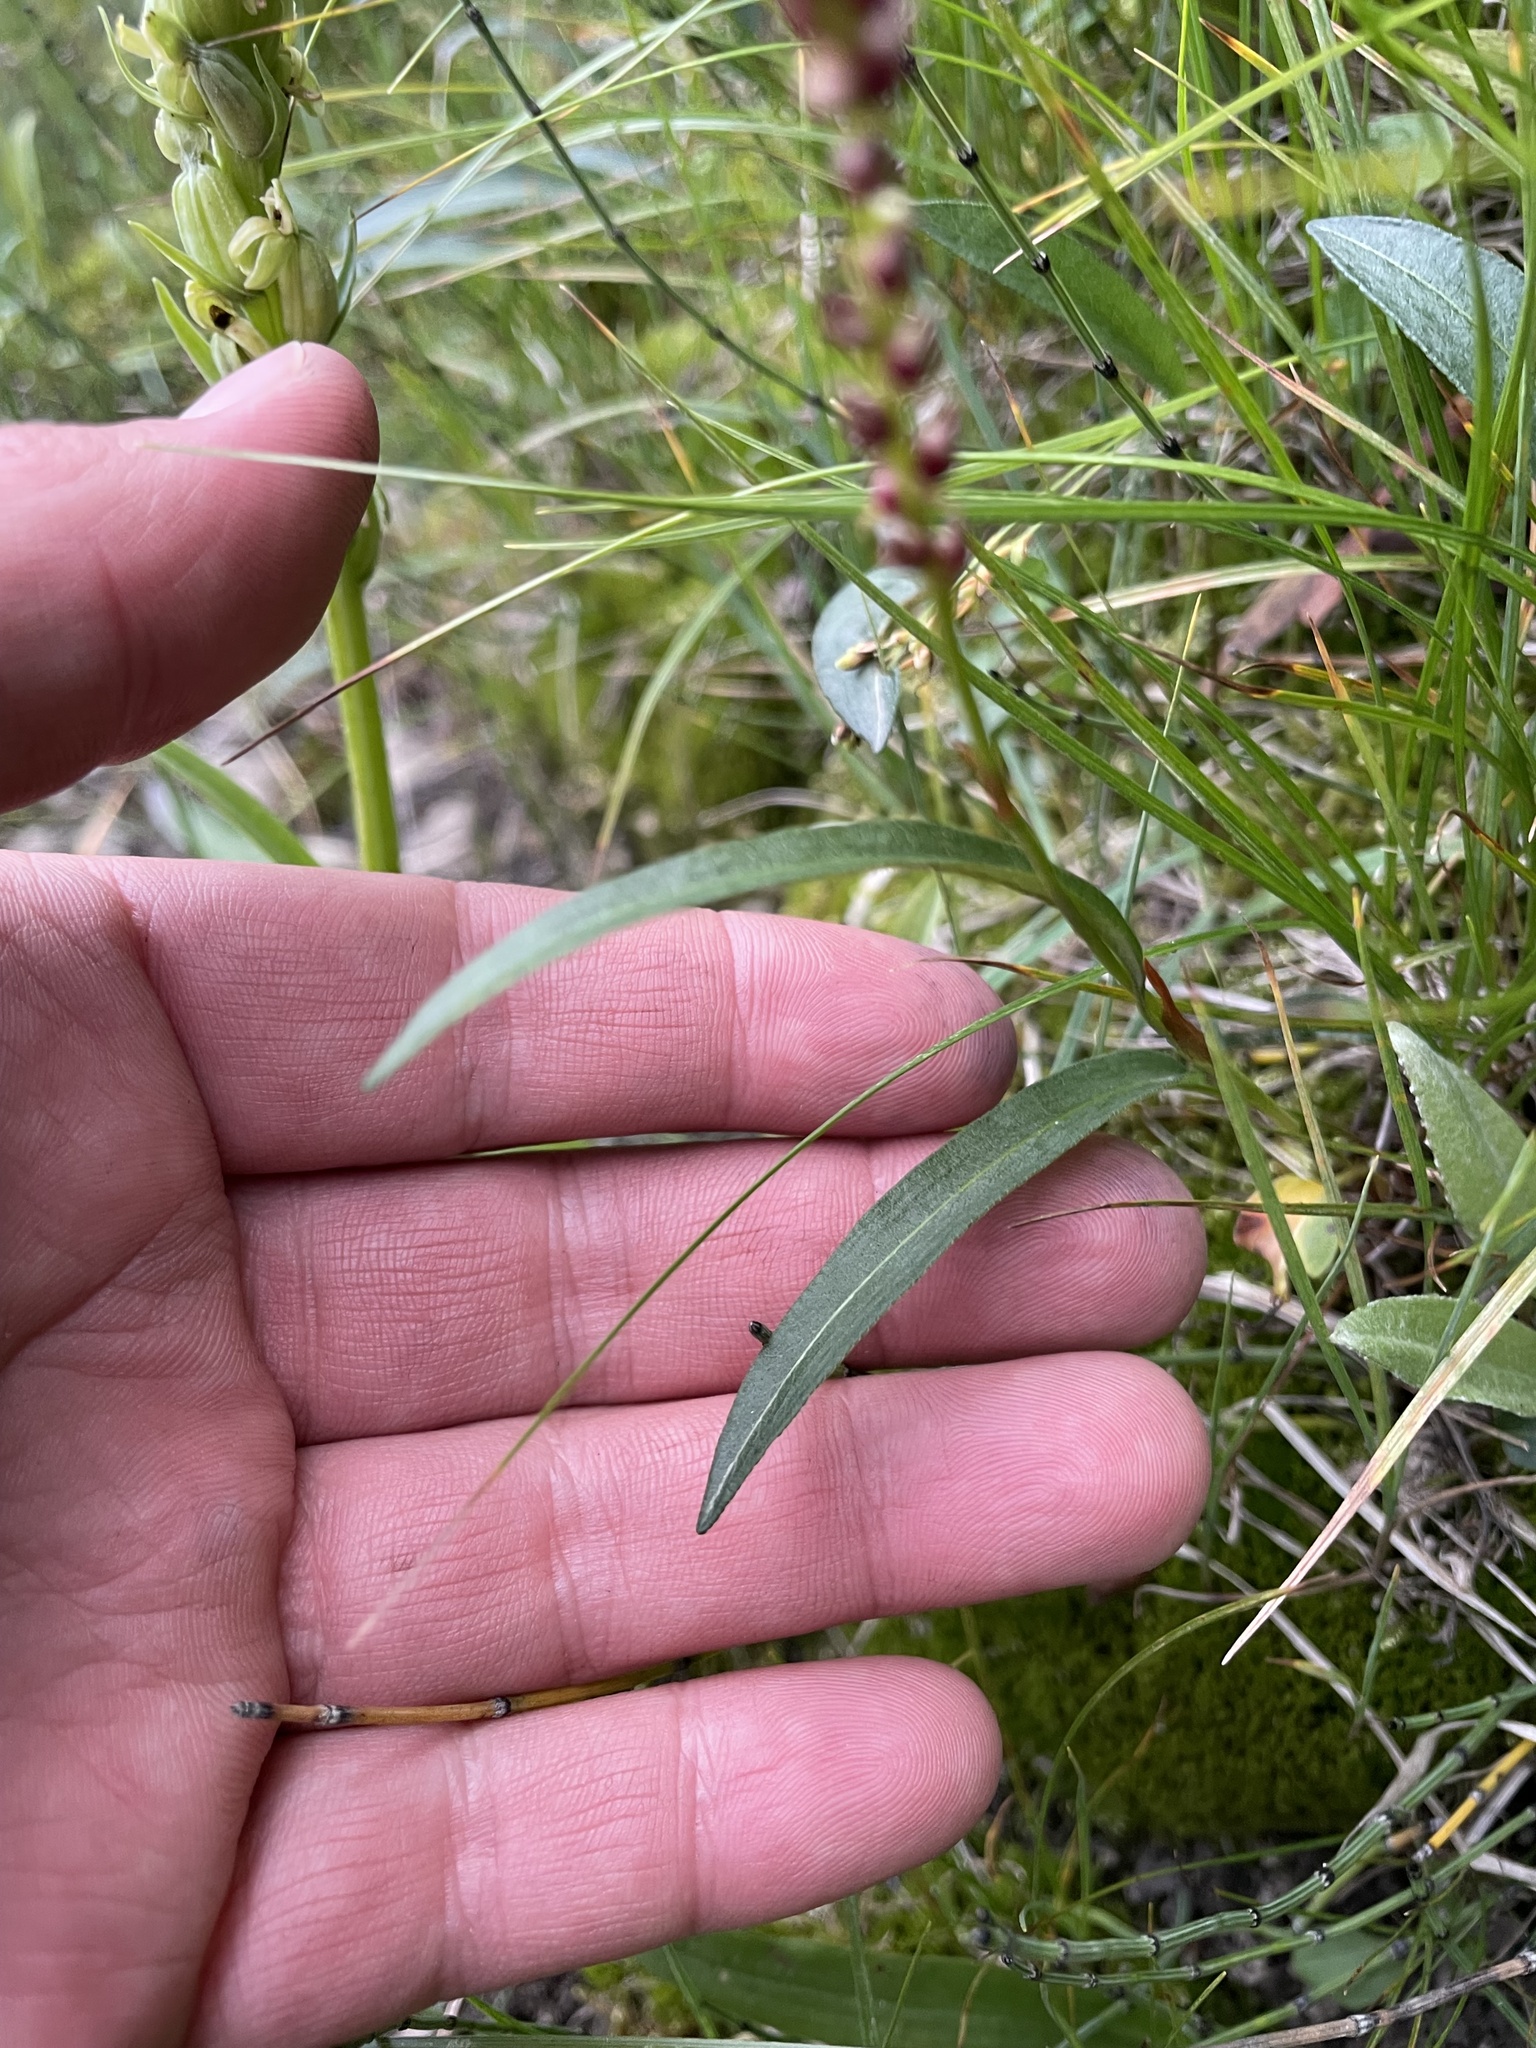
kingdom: Plantae
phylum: Tracheophyta
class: Magnoliopsida
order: Caryophyllales
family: Polygonaceae
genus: Bistorta
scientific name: Bistorta vivipara
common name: Alpine bistort
